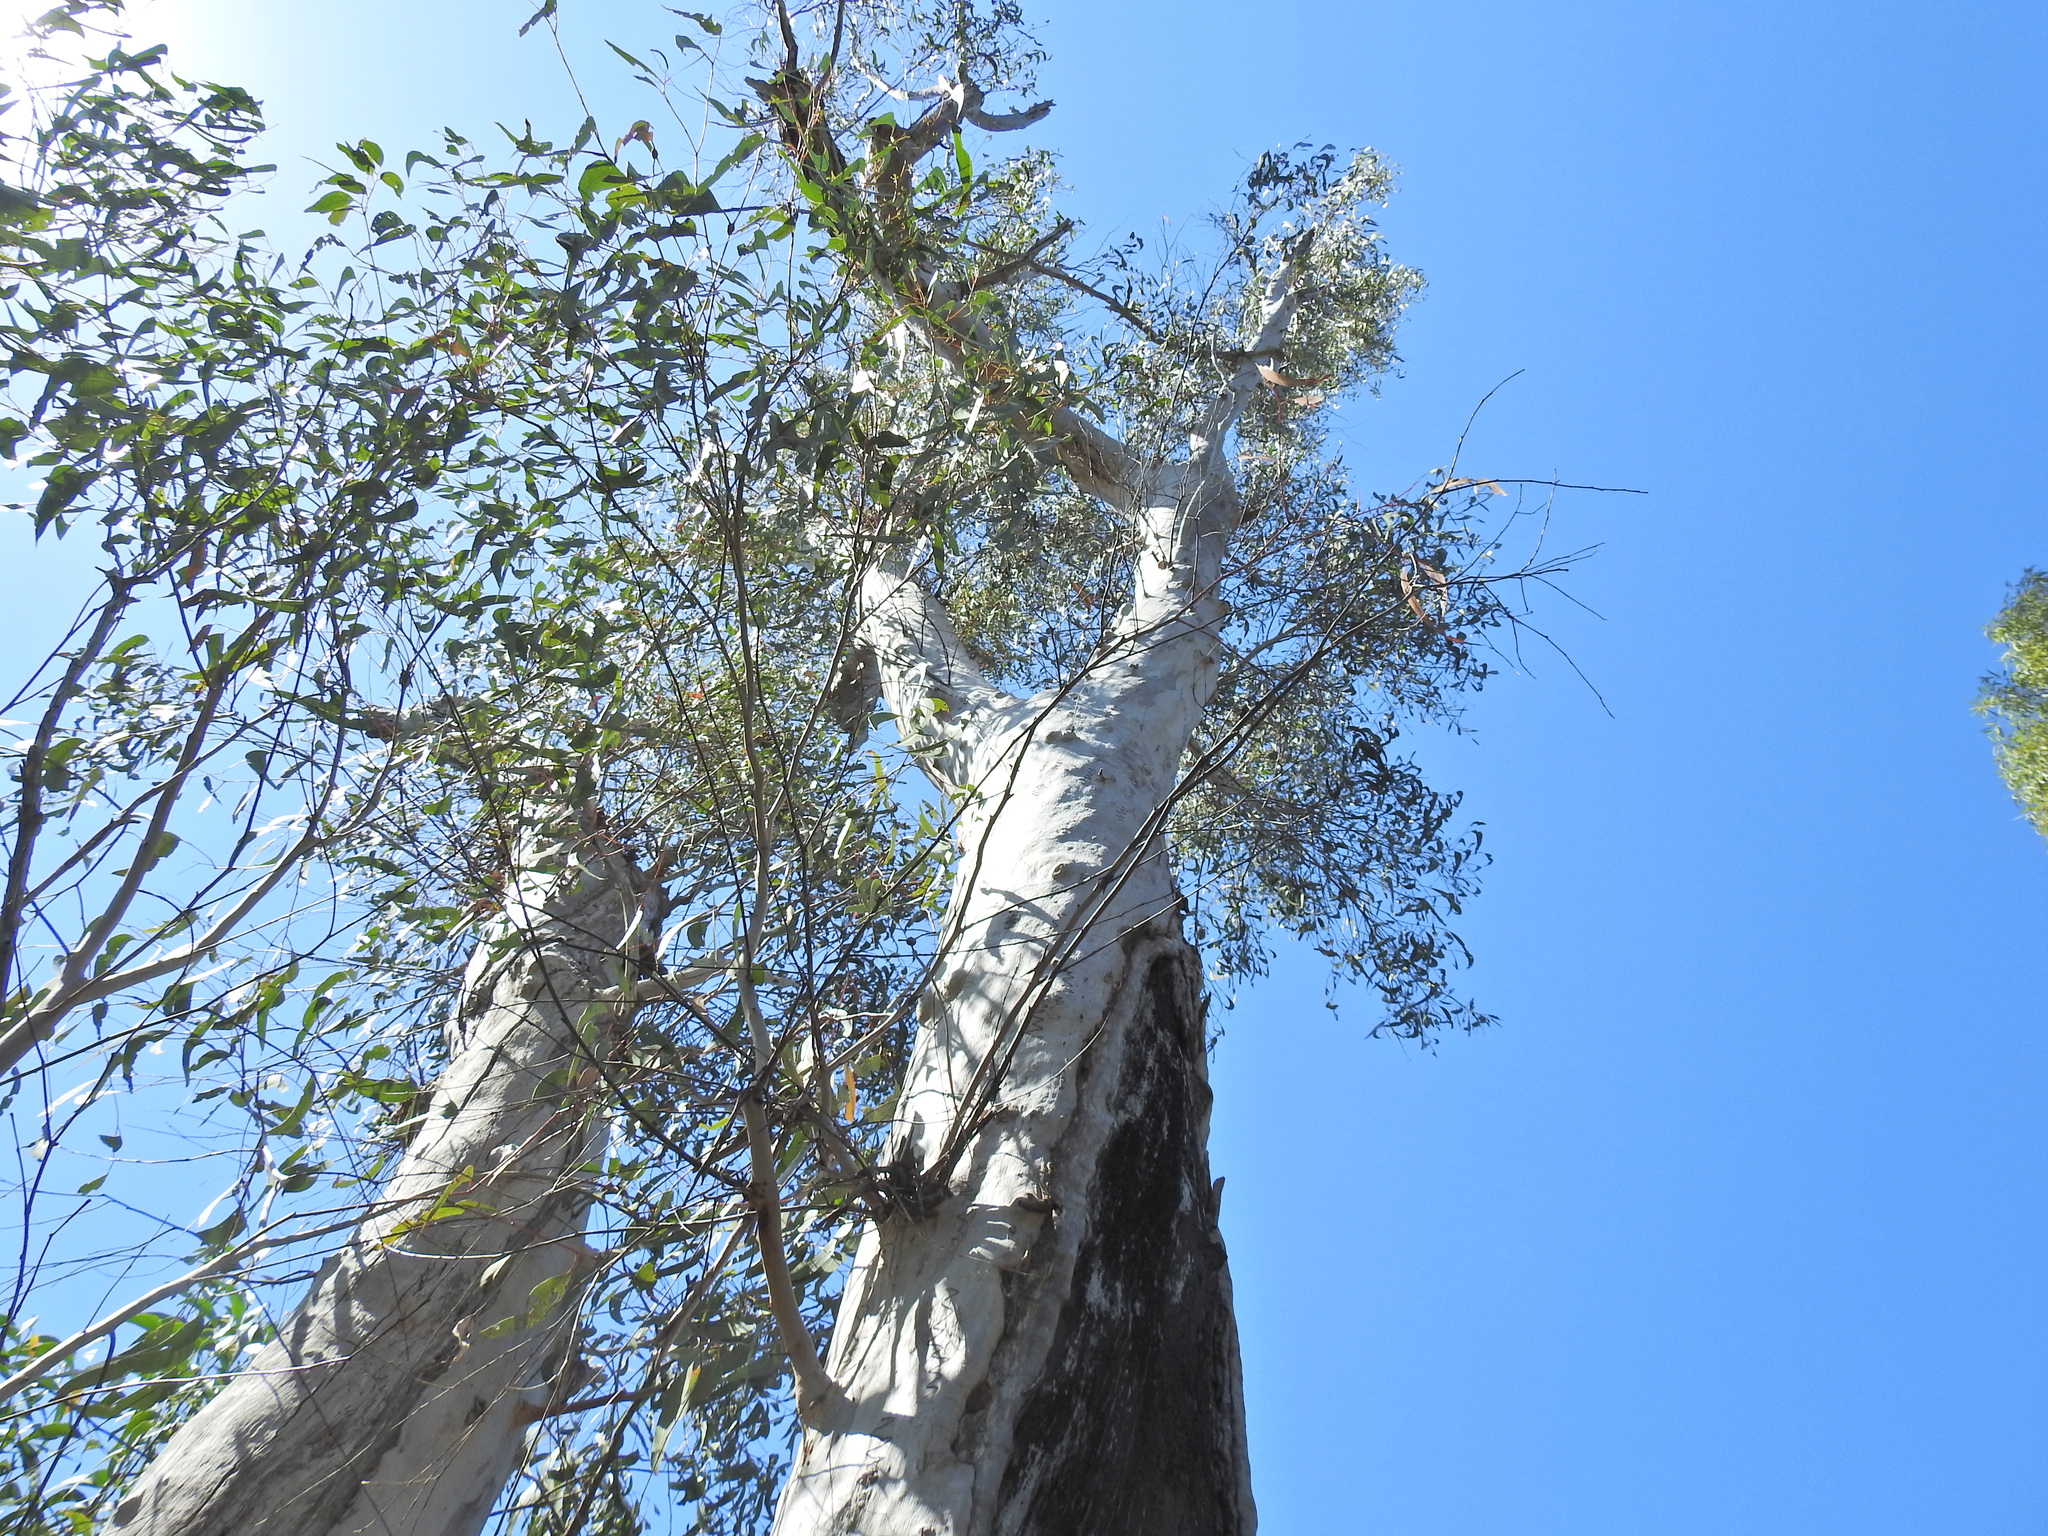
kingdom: Plantae
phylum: Tracheophyta
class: Magnoliopsida
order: Myrtales
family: Myrtaceae
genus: Eucalyptus
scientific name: Eucalyptus racemosa
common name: Scribbly gum
